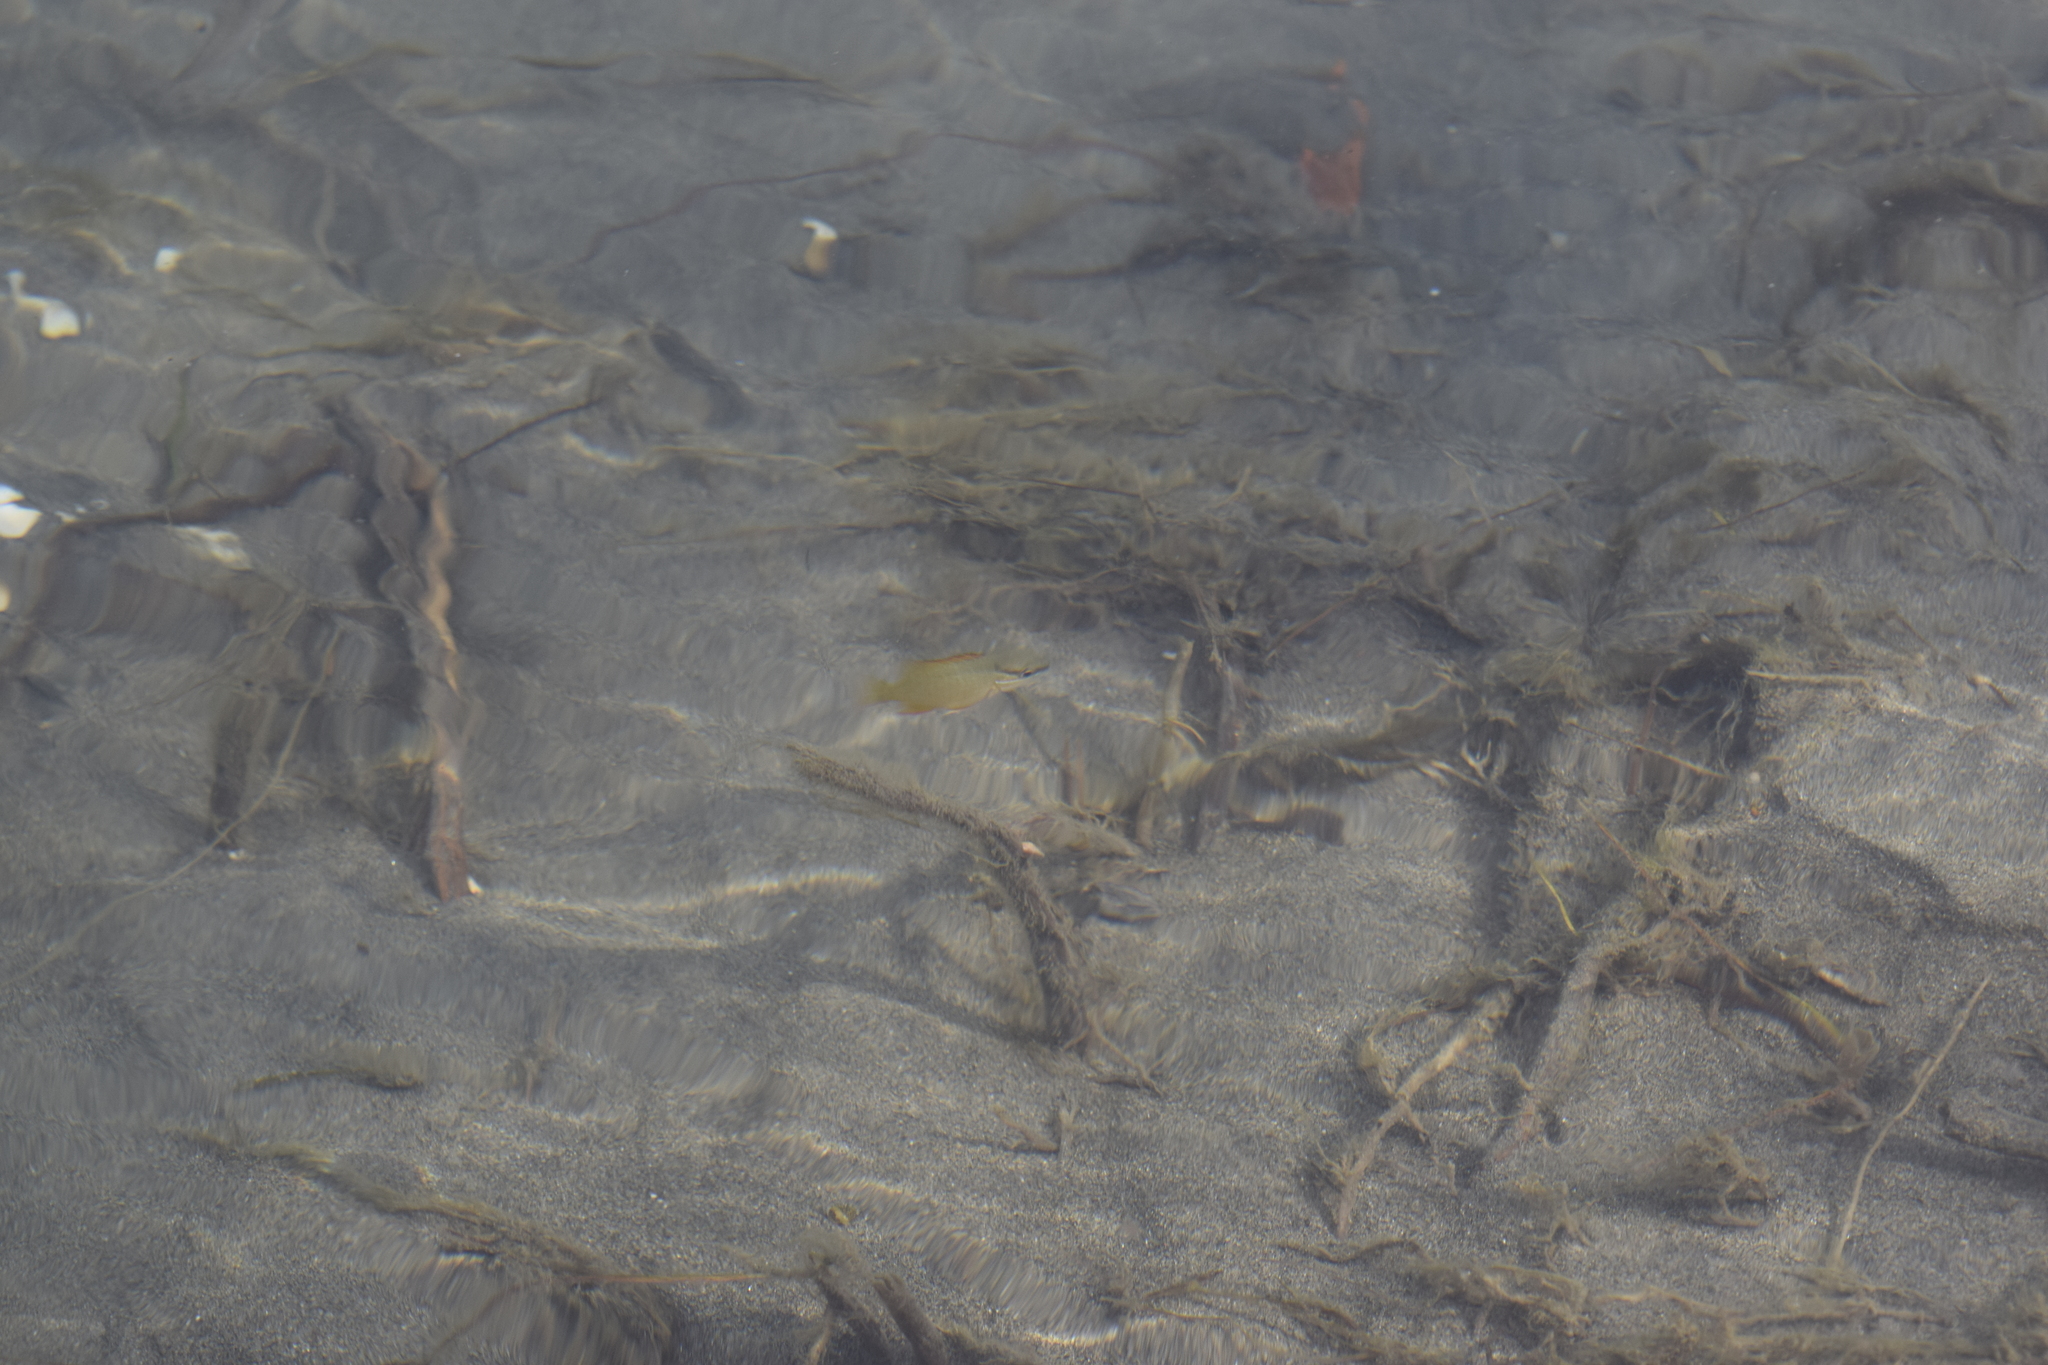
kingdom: Animalia
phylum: Chordata
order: Perciformes
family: Lutjanidae
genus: Lutjanus
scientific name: Lutjanus apodus
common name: Schoolmaster
